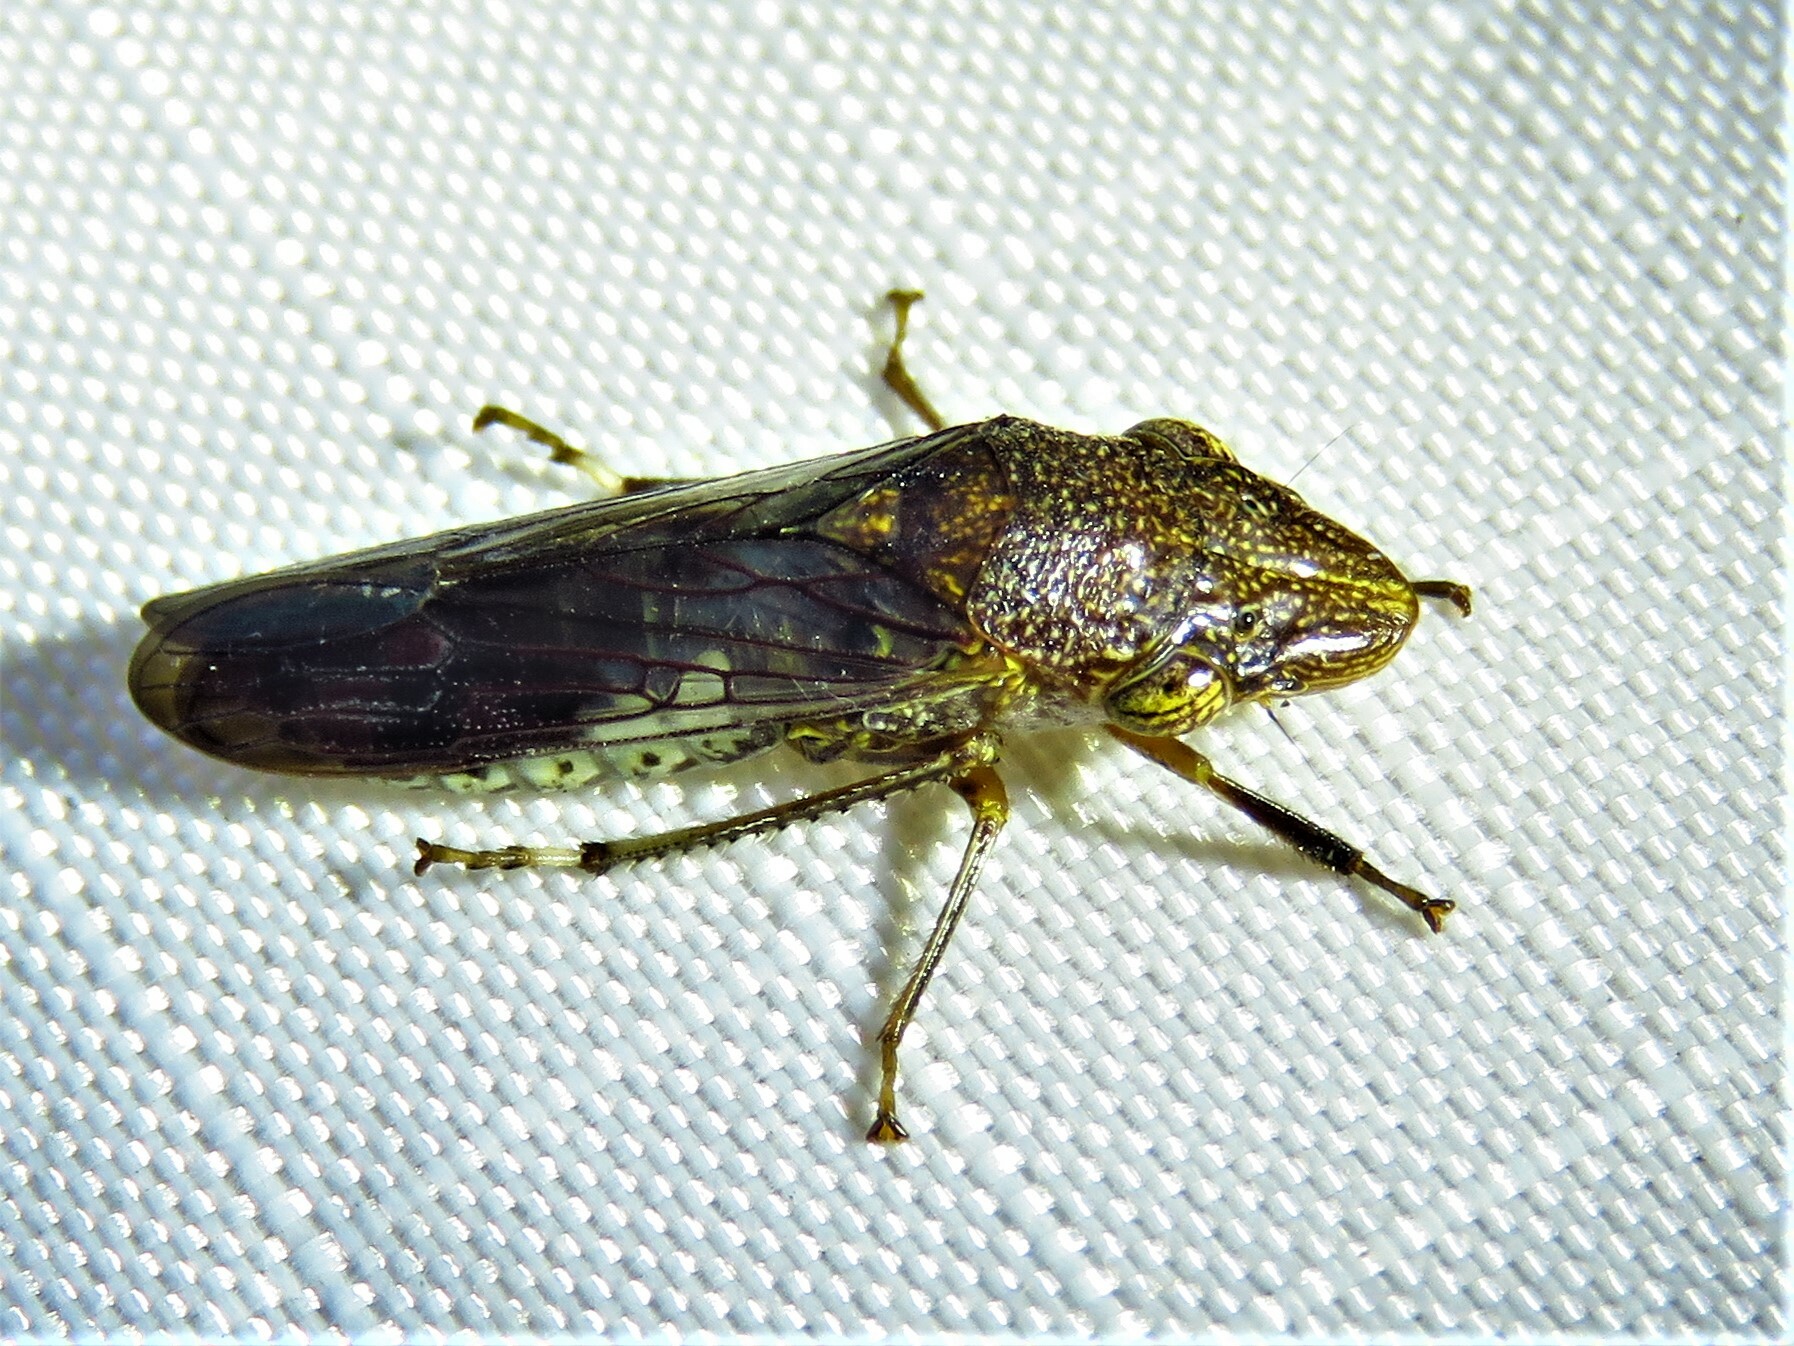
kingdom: Animalia
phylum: Arthropoda
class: Insecta
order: Hemiptera
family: Cicadellidae
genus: Homalodisca
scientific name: Homalodisca vitripennis
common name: Glassy-winged sharpshooter
